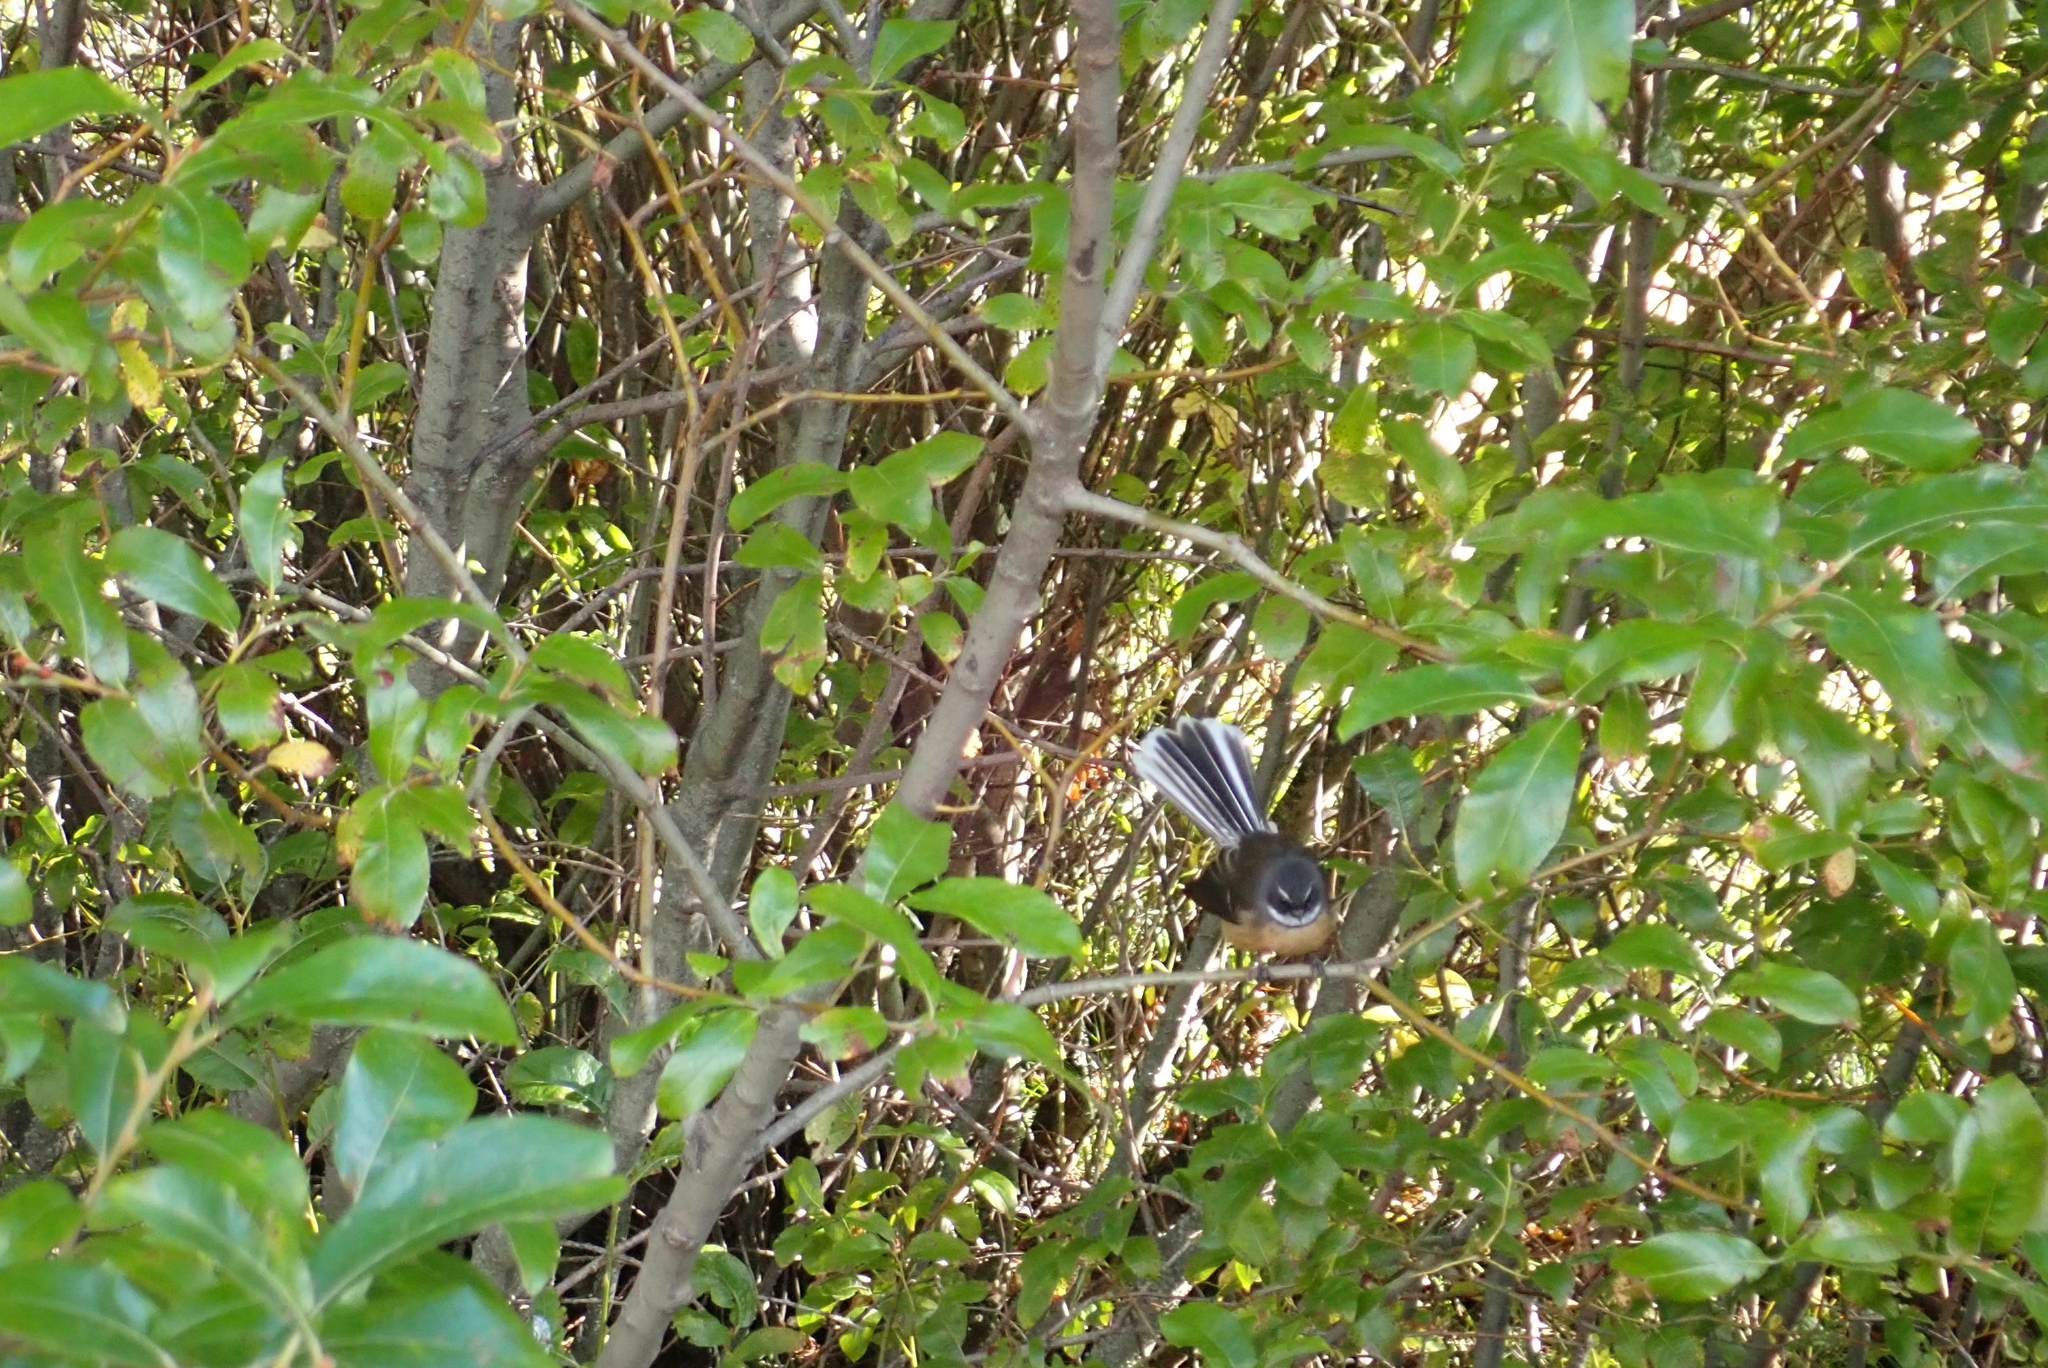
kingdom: Animalia
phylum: Chordata
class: Aves
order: Passeriformes
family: Rhipiduridae
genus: Rhipidura
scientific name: Rhipidura fuliginosa
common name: New zealand fantail
